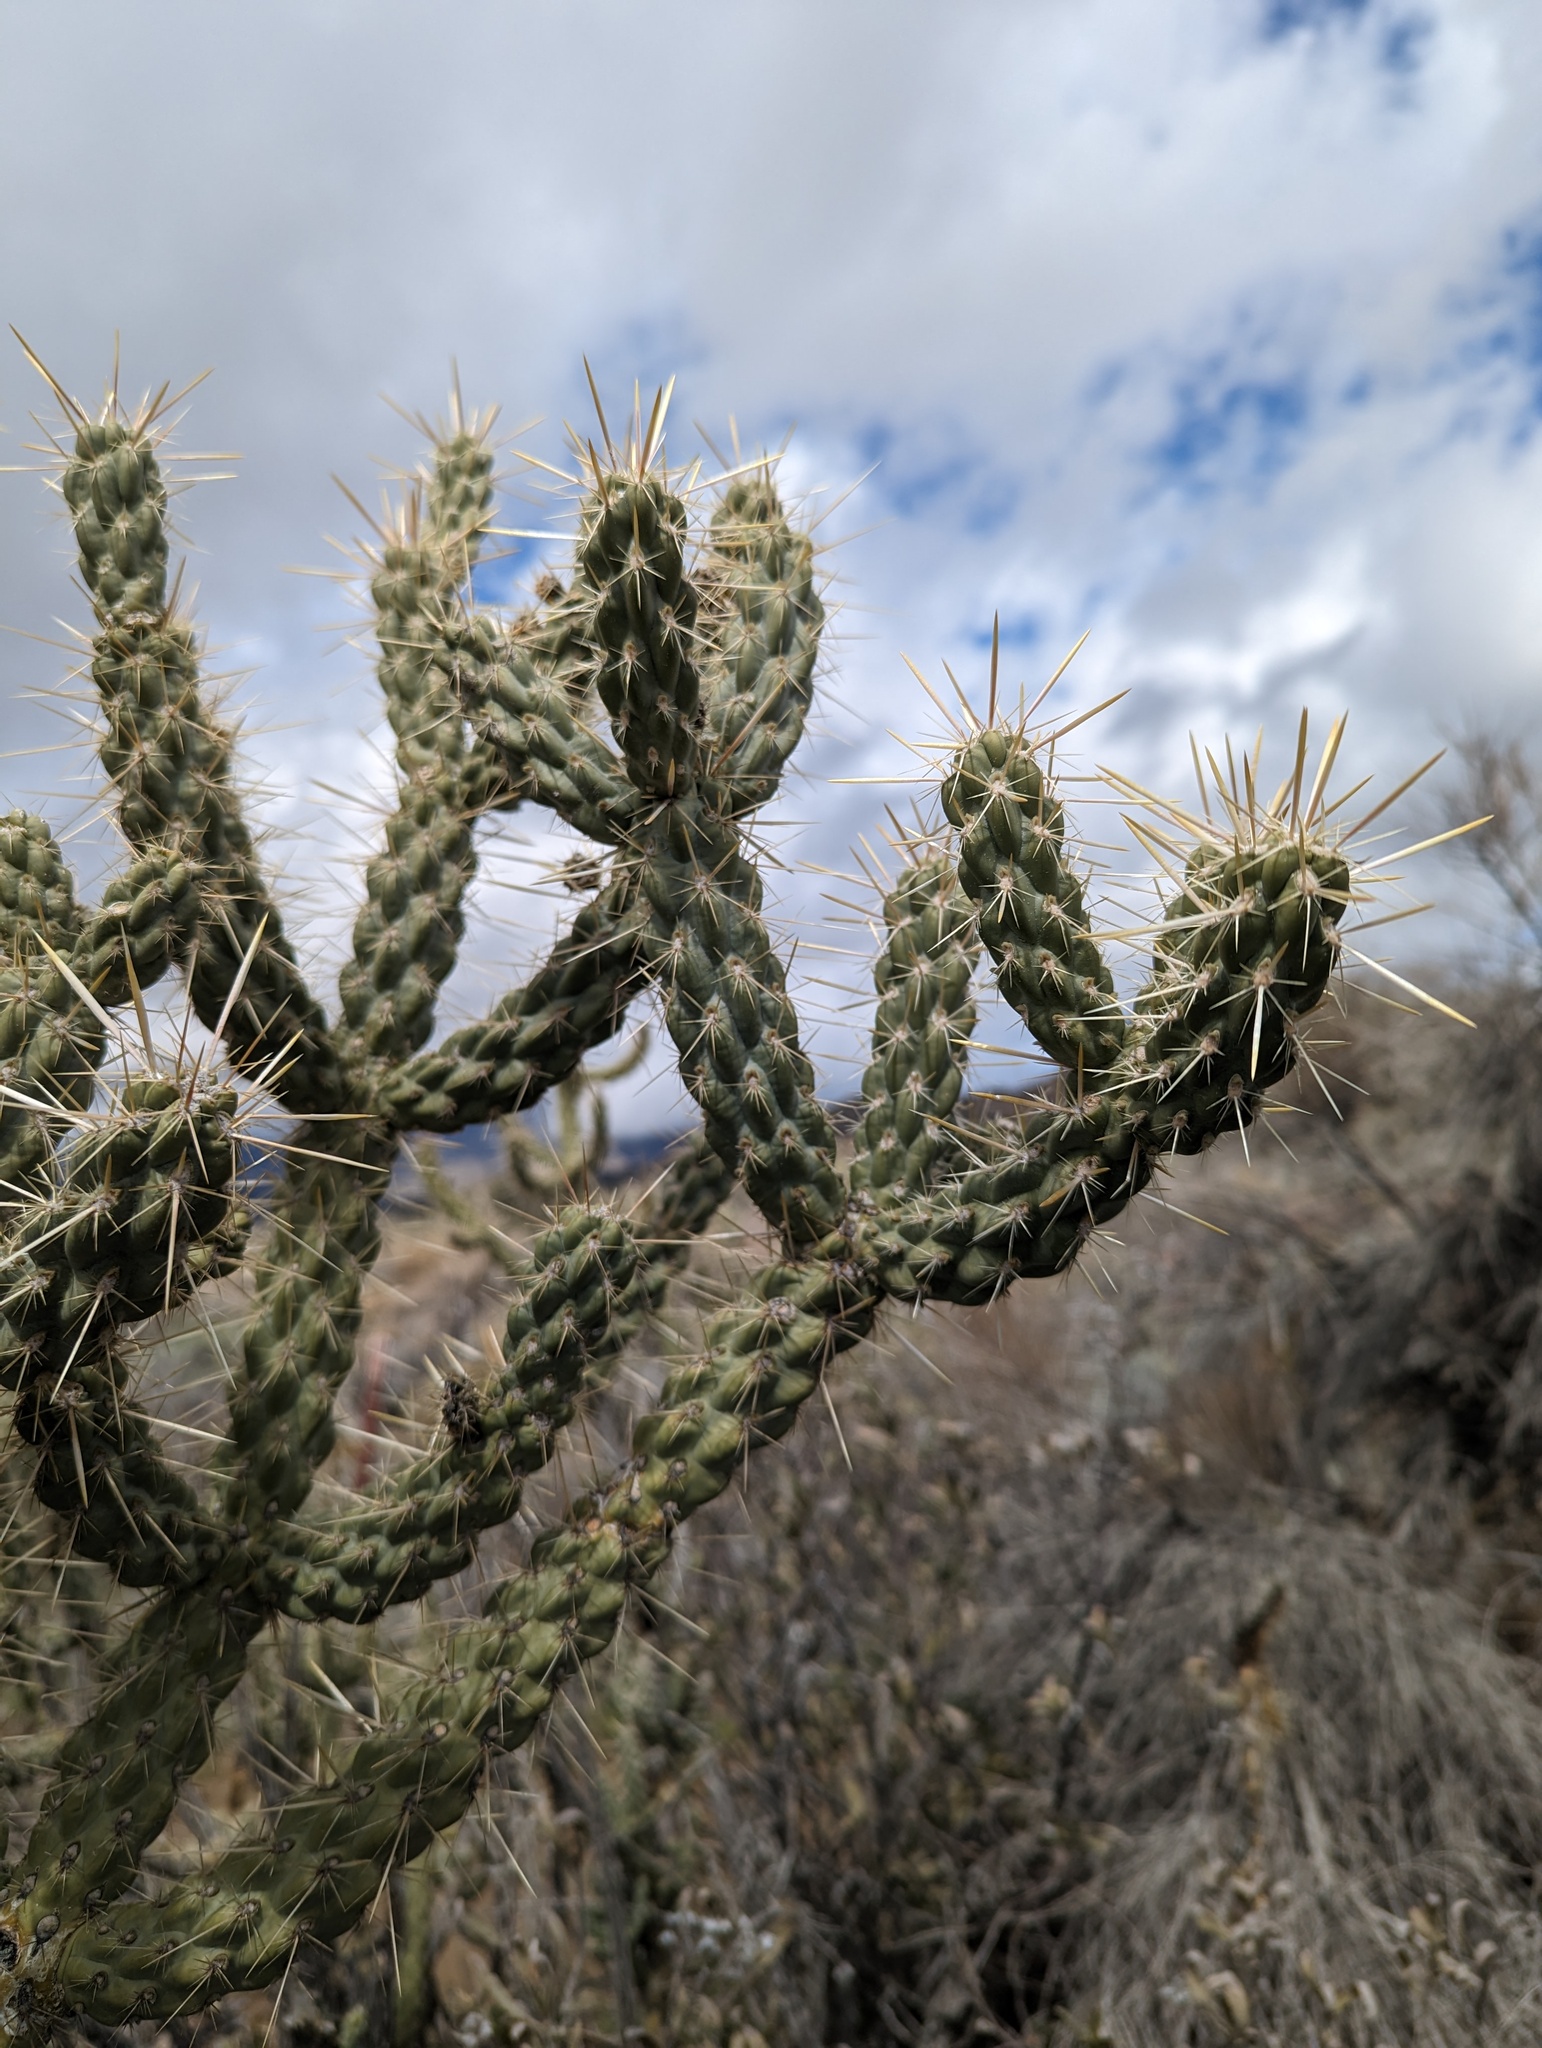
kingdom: Plantae
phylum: Tracheophyta
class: Magnoliopsida
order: Caryophyllales
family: Cactaceae
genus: Cylindropuntia
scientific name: Cylindropuntia bernardina
